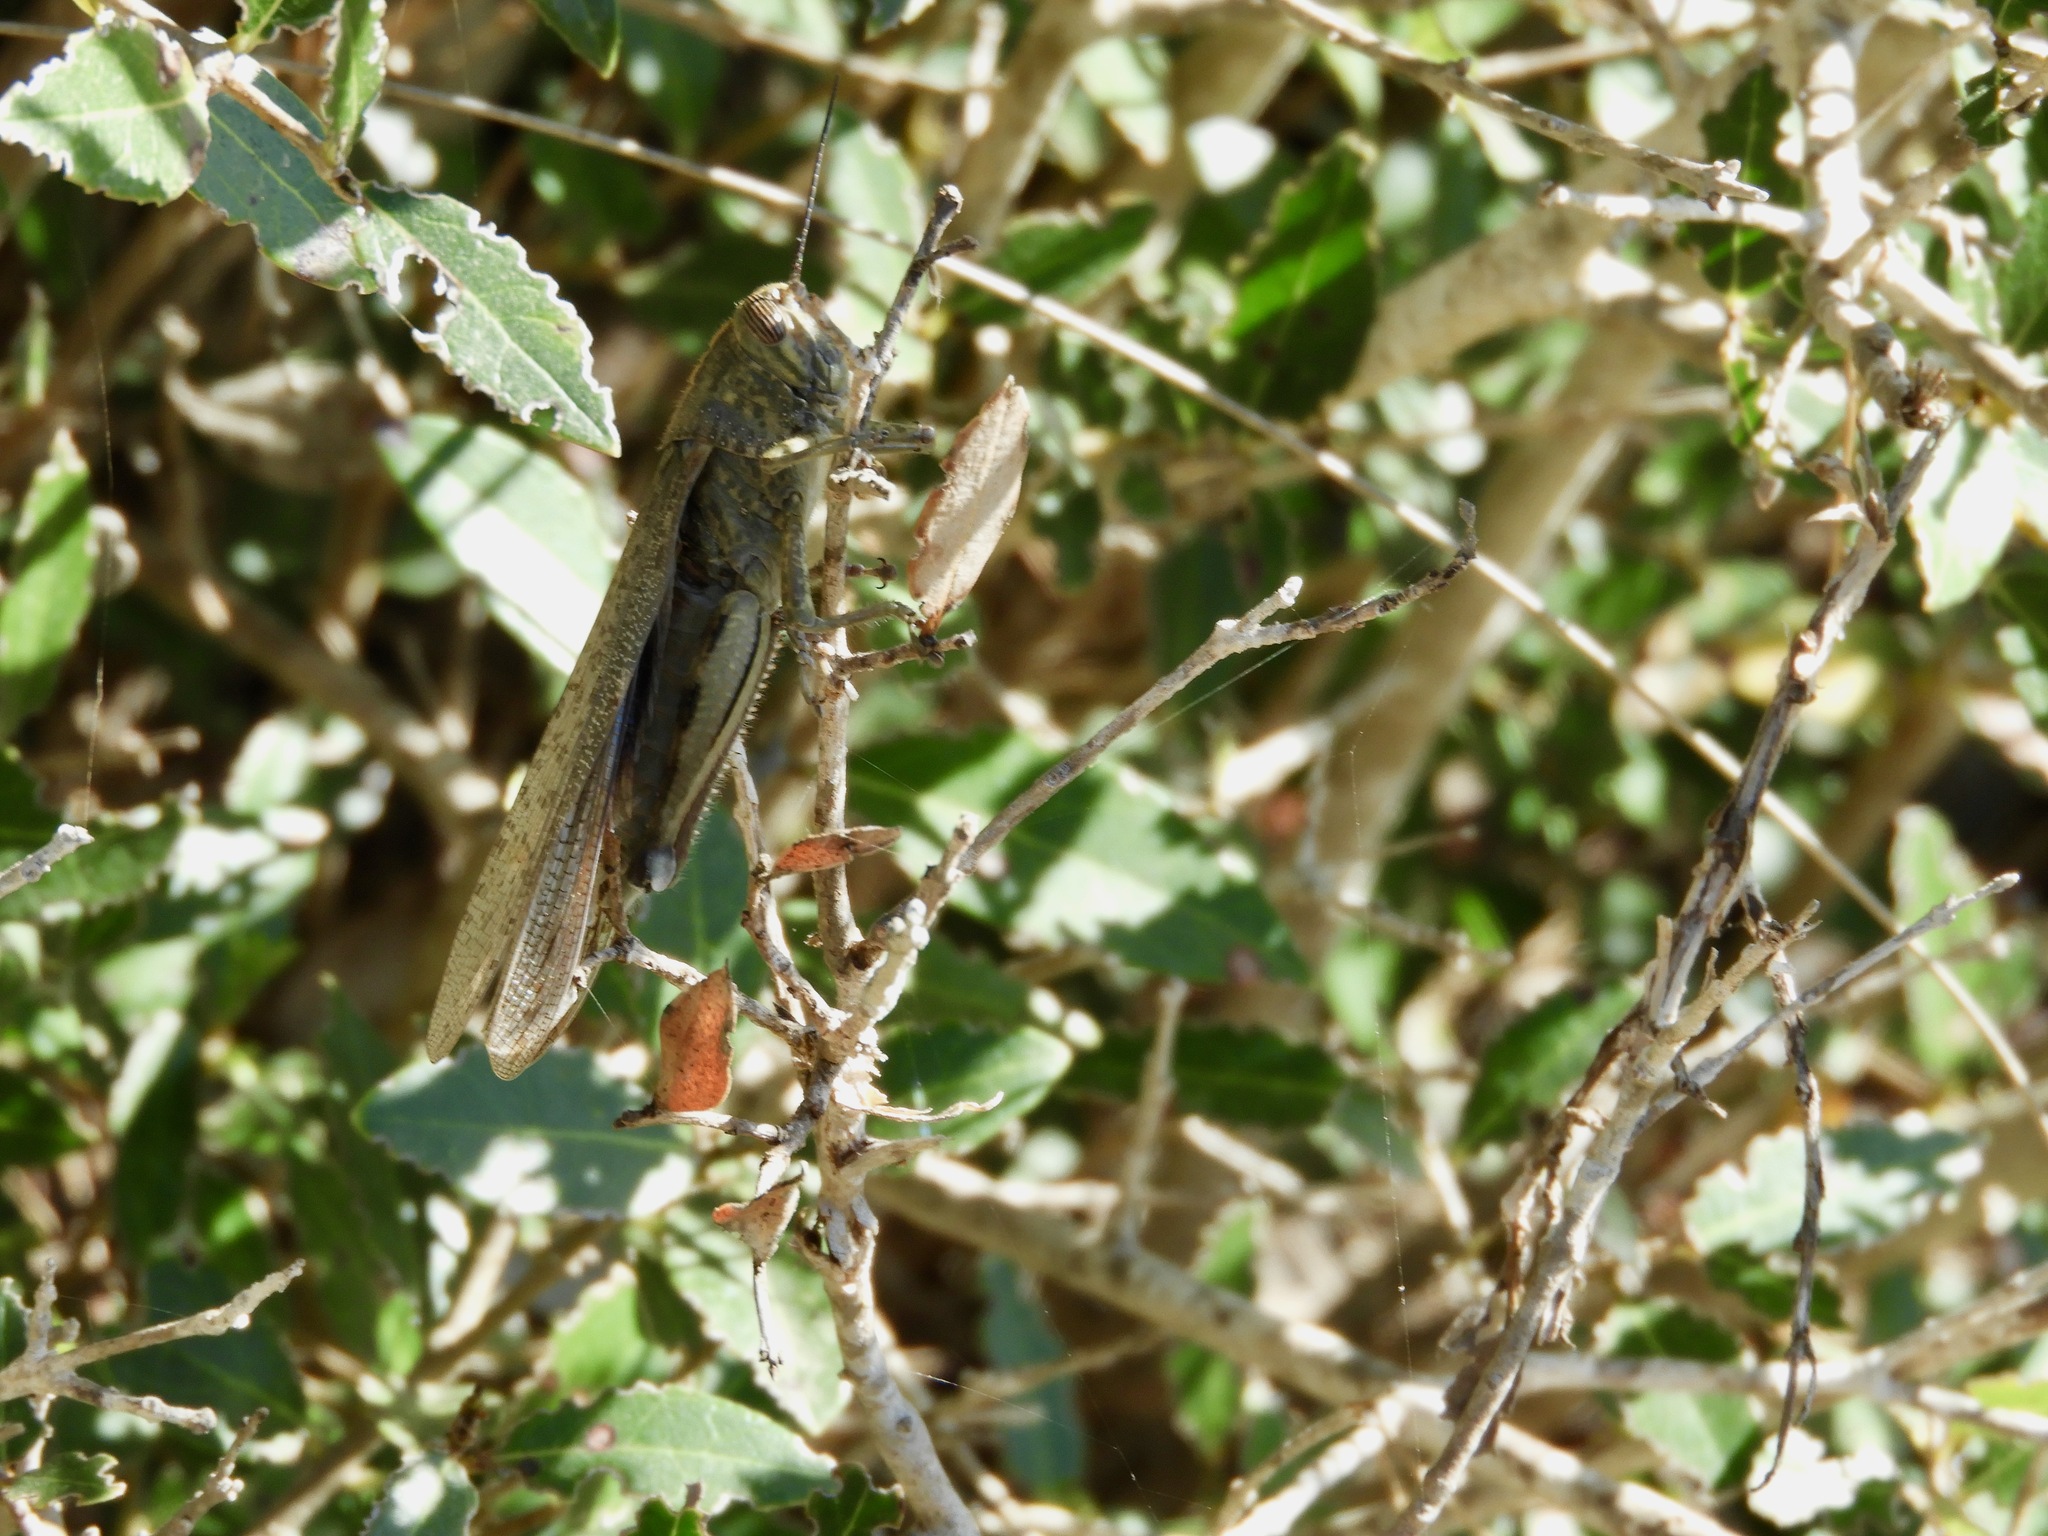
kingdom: Animalia
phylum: Arthropoda
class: Insecta
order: Orthoptera
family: Acrididae
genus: Anacridium
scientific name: Anacridium aegyptium
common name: Egyptian grasshopper
